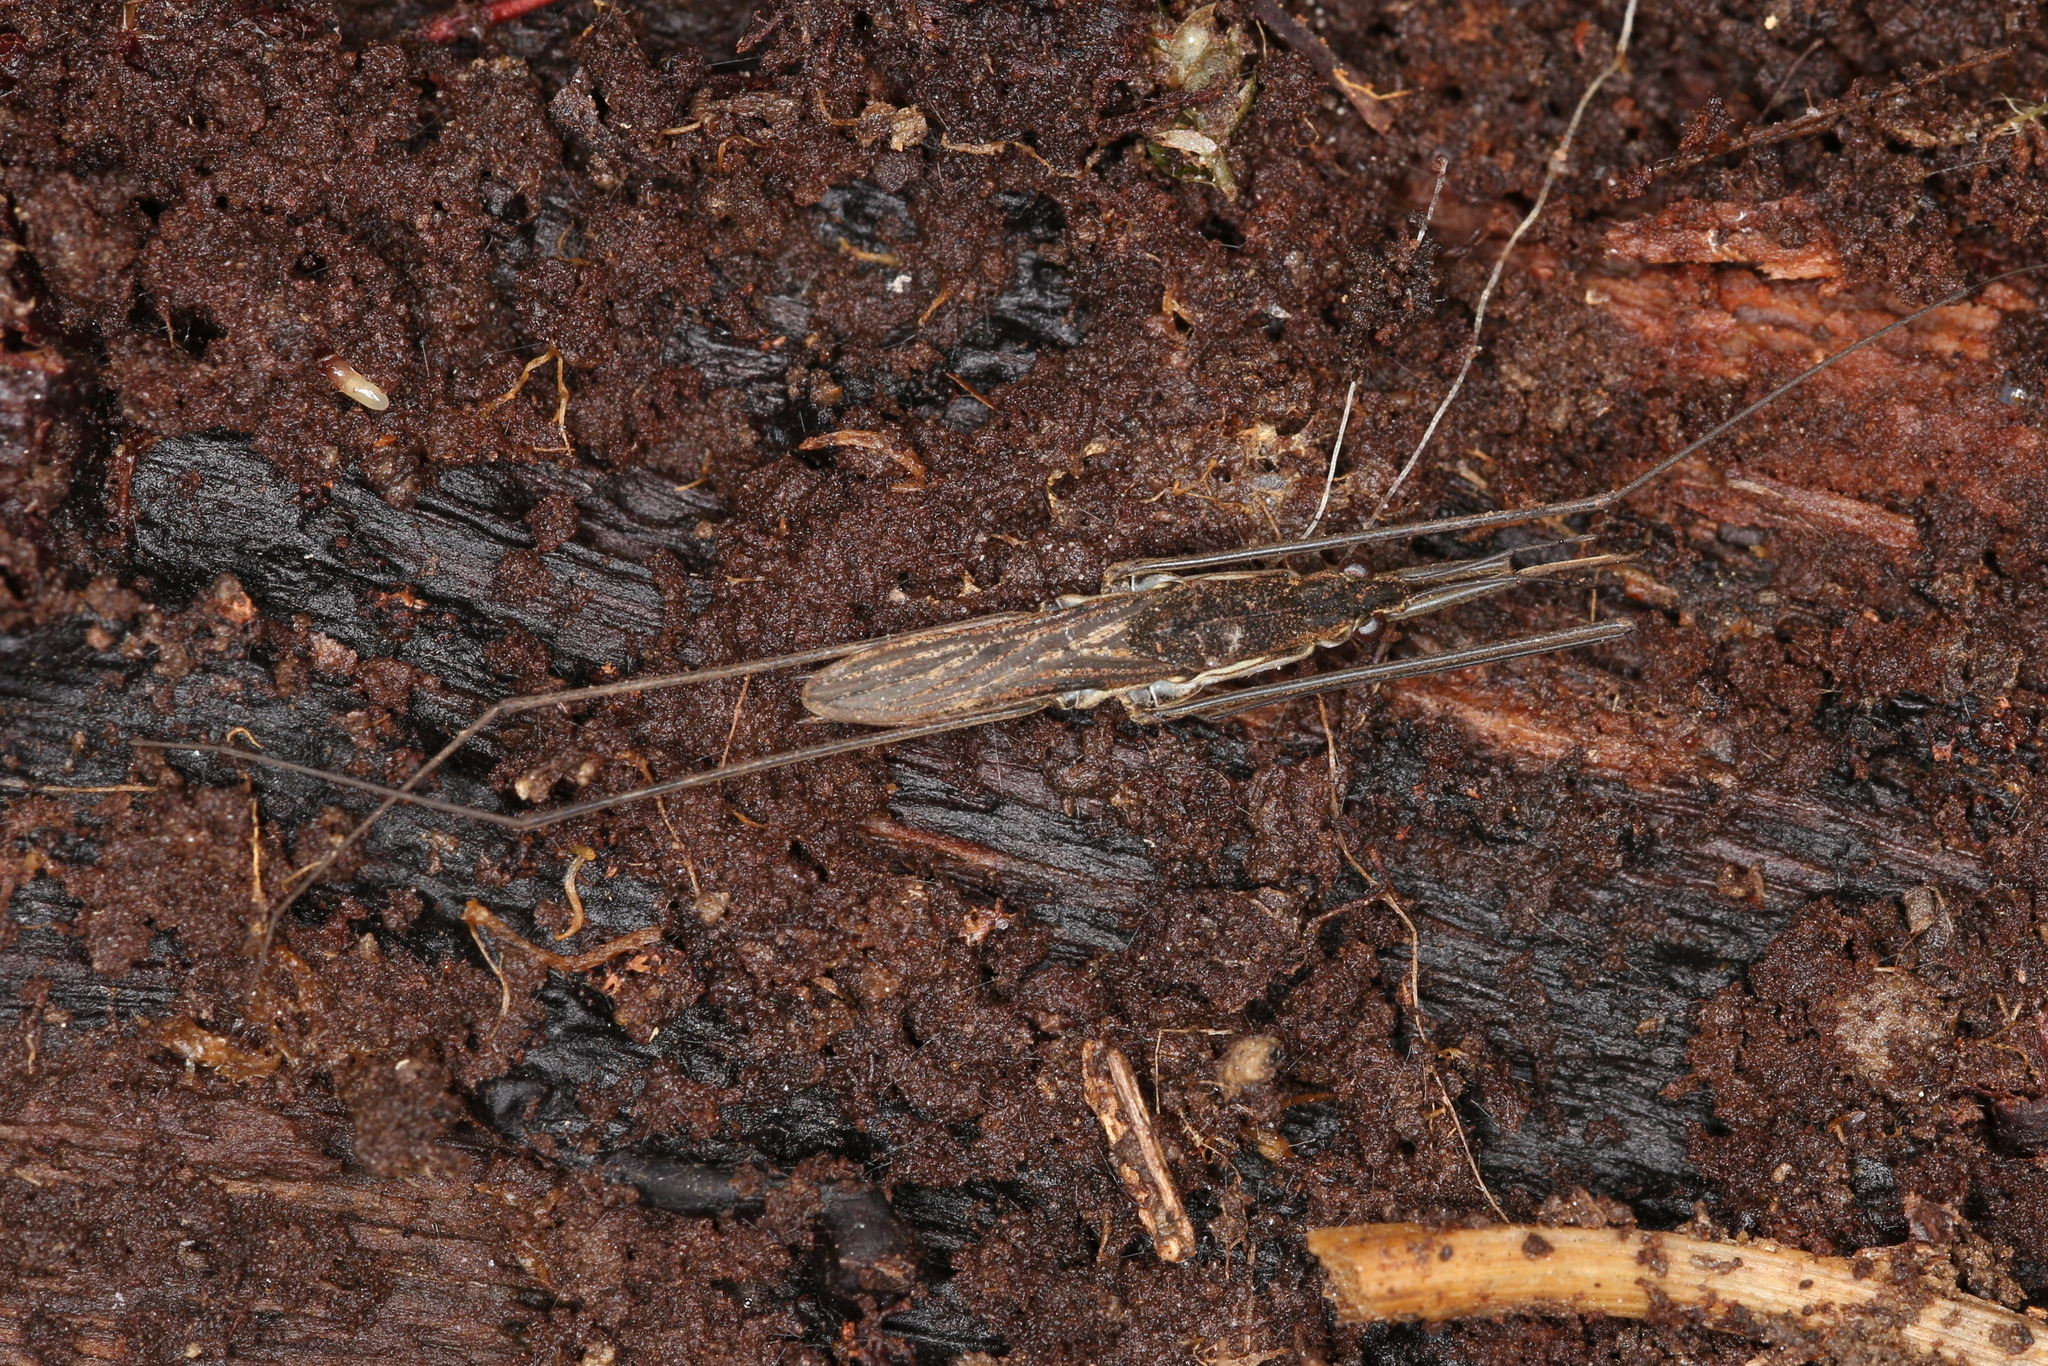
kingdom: Animalia
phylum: Arthropoda
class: Insecta
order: Hemiptera
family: Gerridae
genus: Aquarius
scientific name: Aquarius paludum
